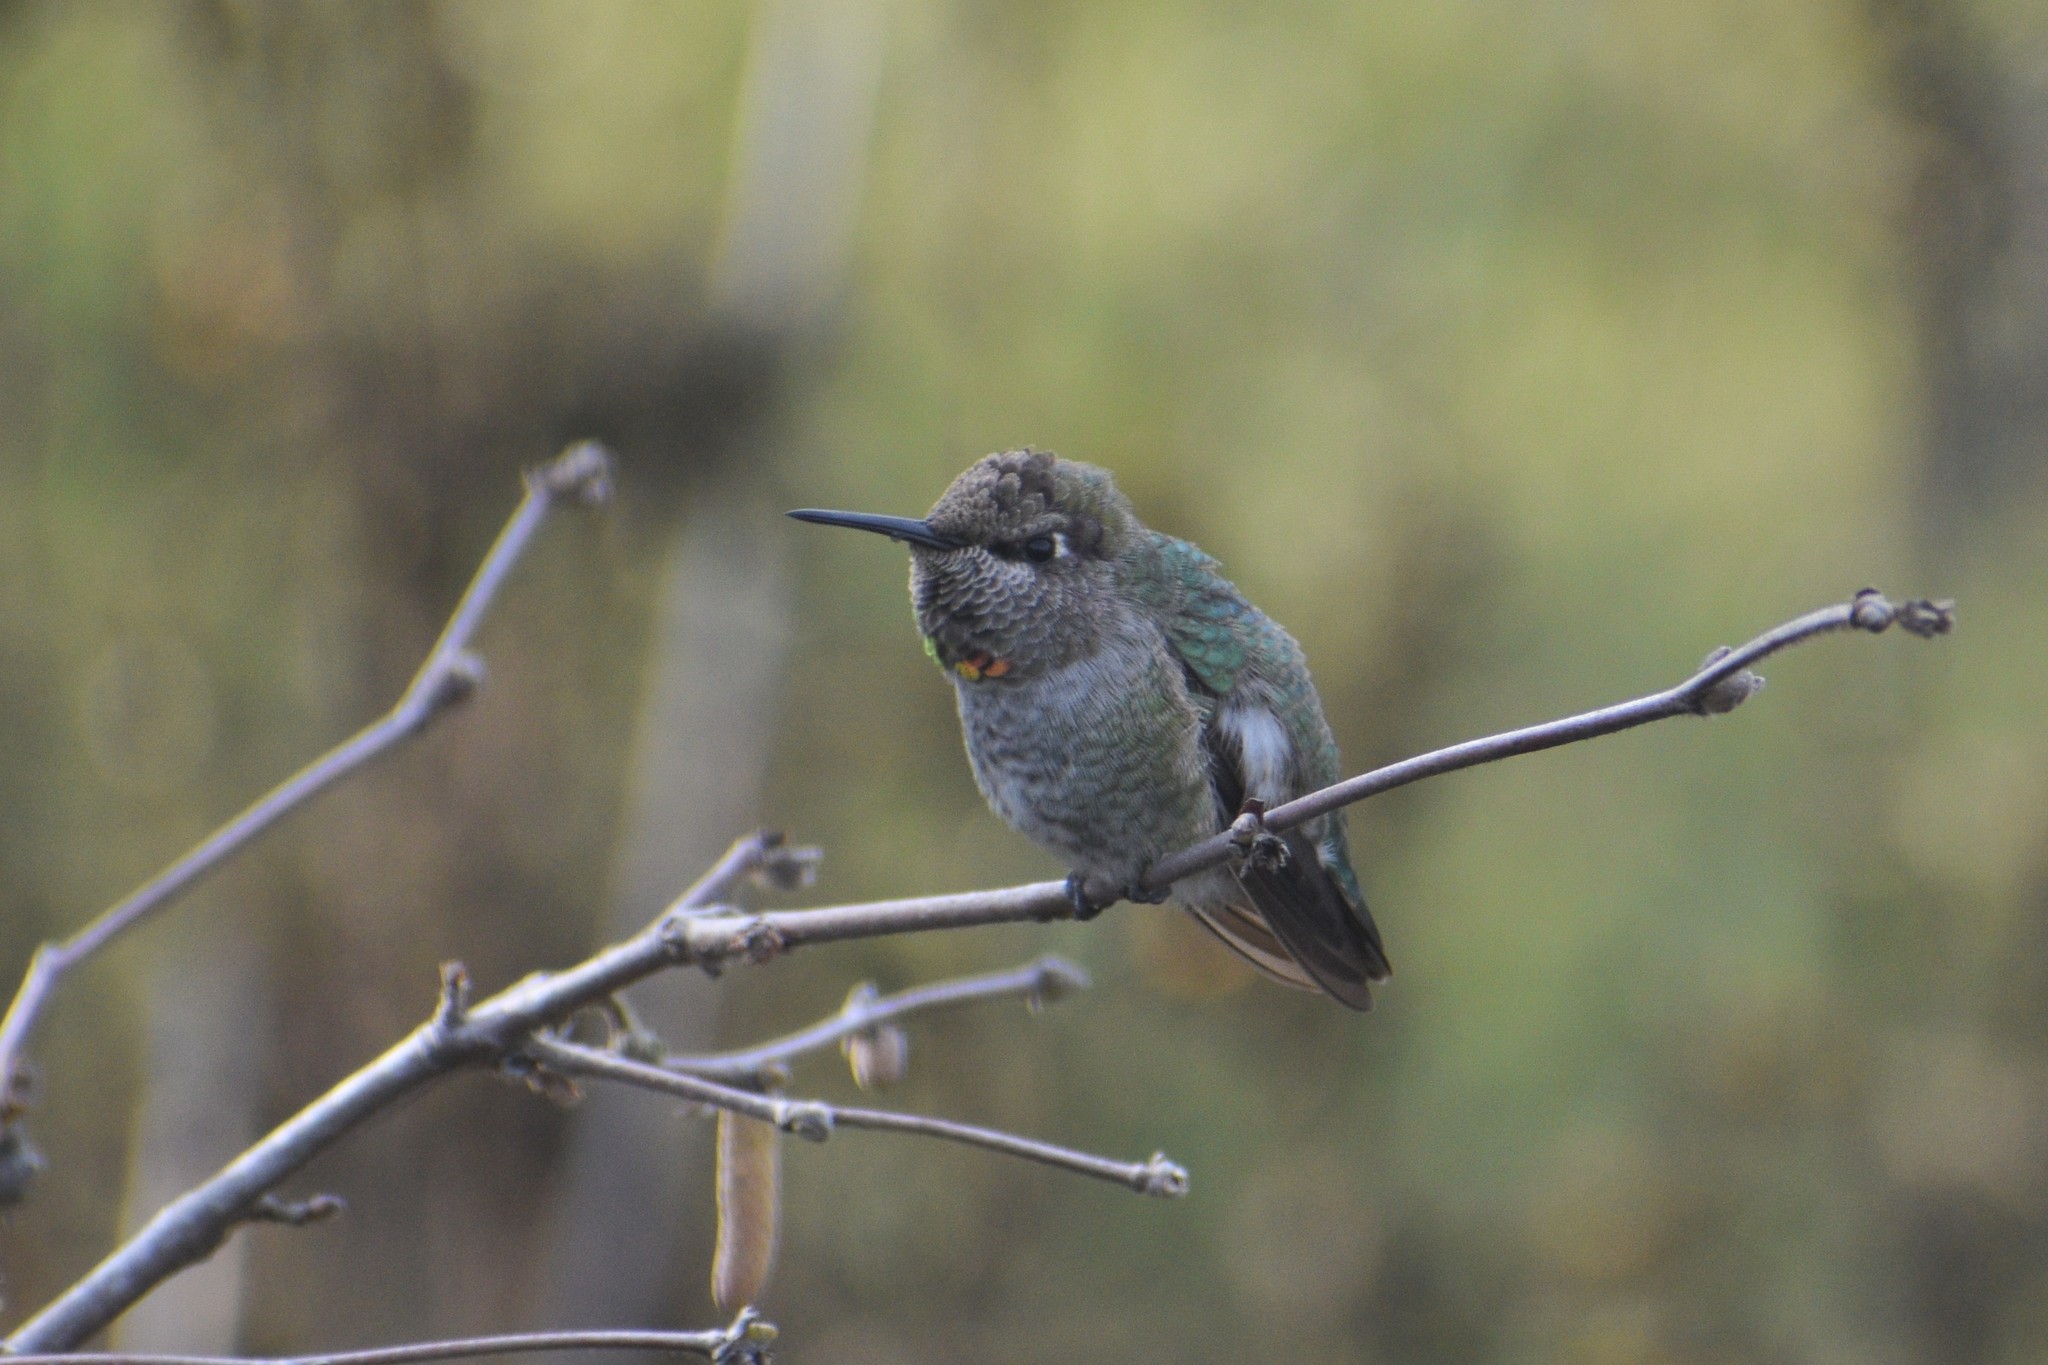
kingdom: Animalia
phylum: Chordata
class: Aves
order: Apodiformes
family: Trochilidae
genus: Calypte
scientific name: Calypte anna
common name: Anna's hummingbird
